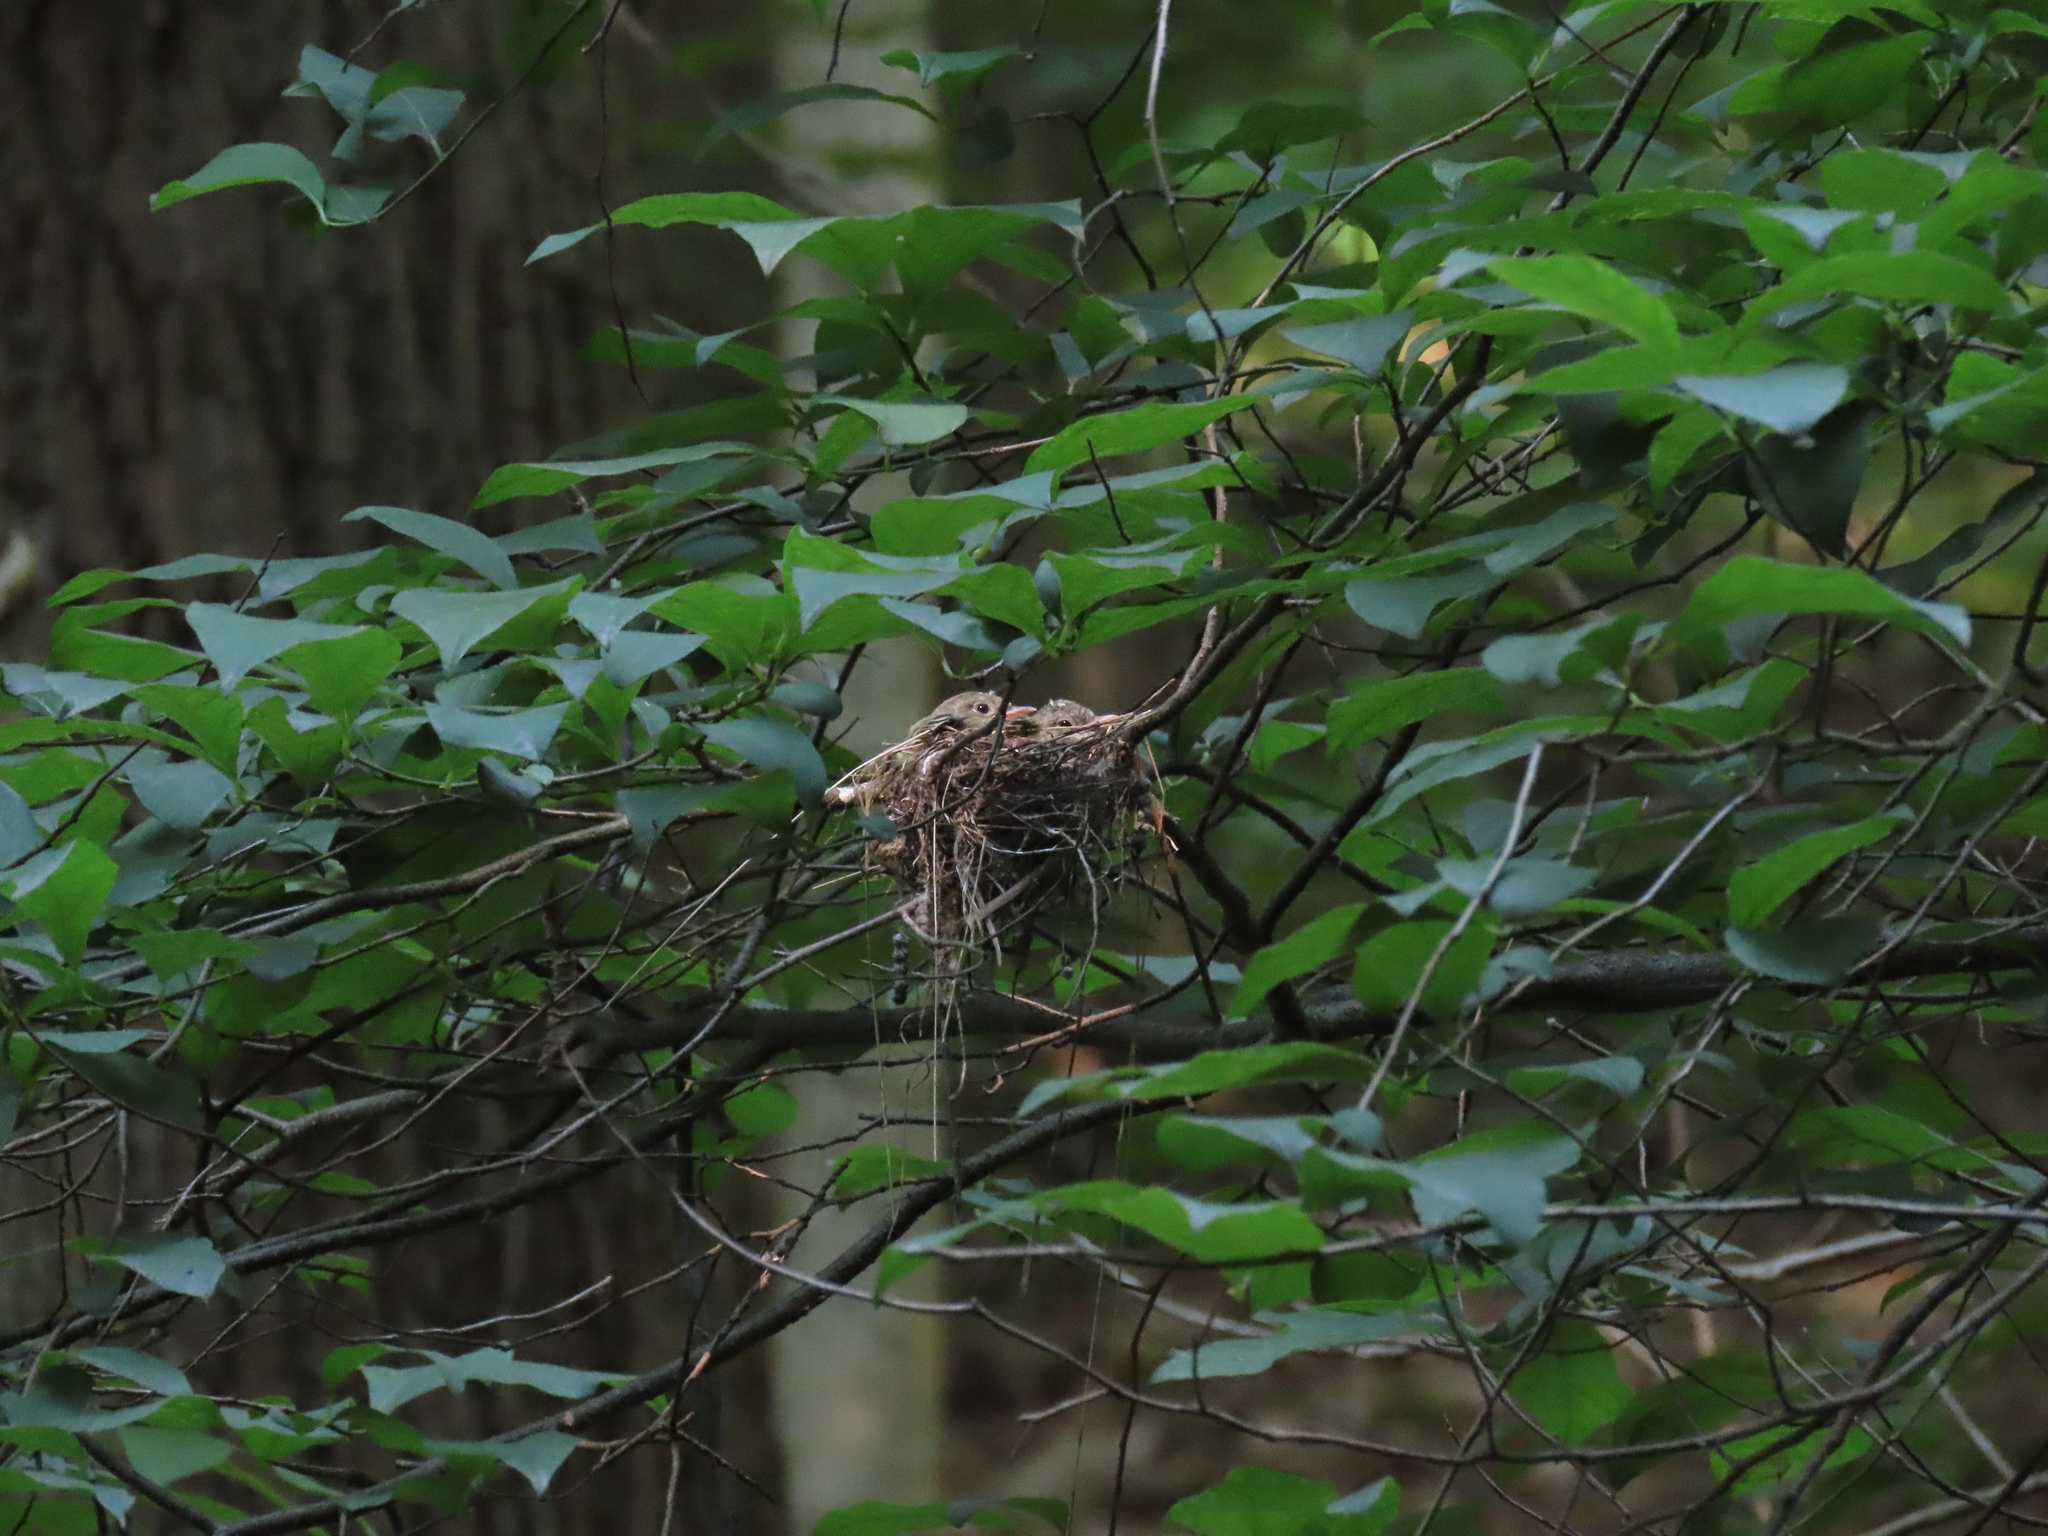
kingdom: Animalia
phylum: Chordata
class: Aves
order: Passeriformes
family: Tyrannidae
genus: Empidonax
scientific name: Empidonax virescens
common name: Acadian flycatcher
